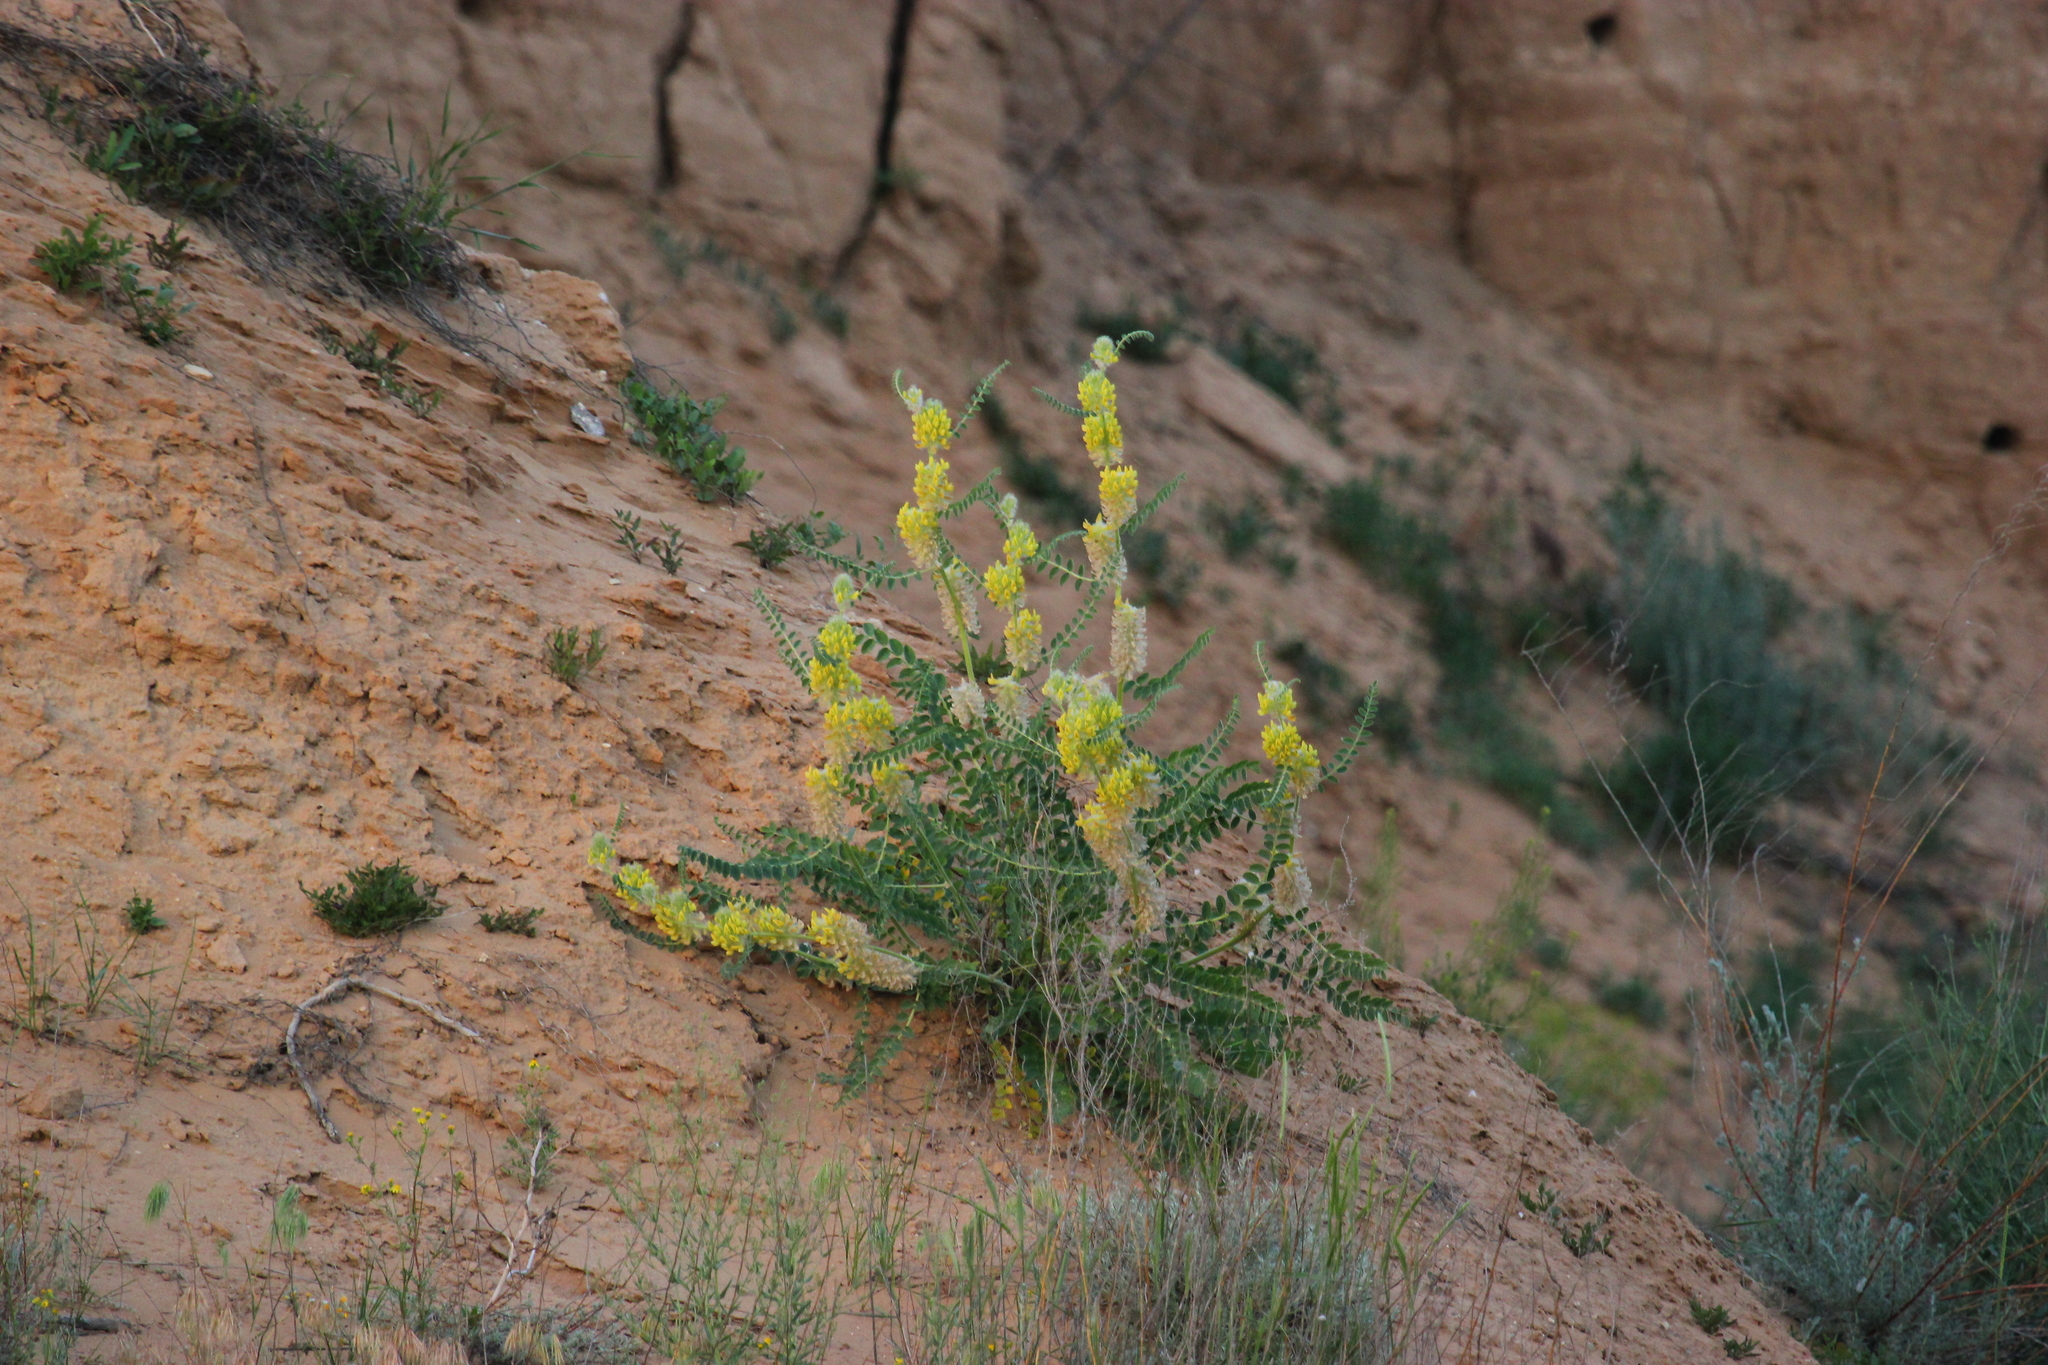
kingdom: Plantae
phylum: Tracheophyta
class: Magnoliopsida
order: Fabales
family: Fabaceae
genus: Astragalus
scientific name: Astragalus vulpinus
